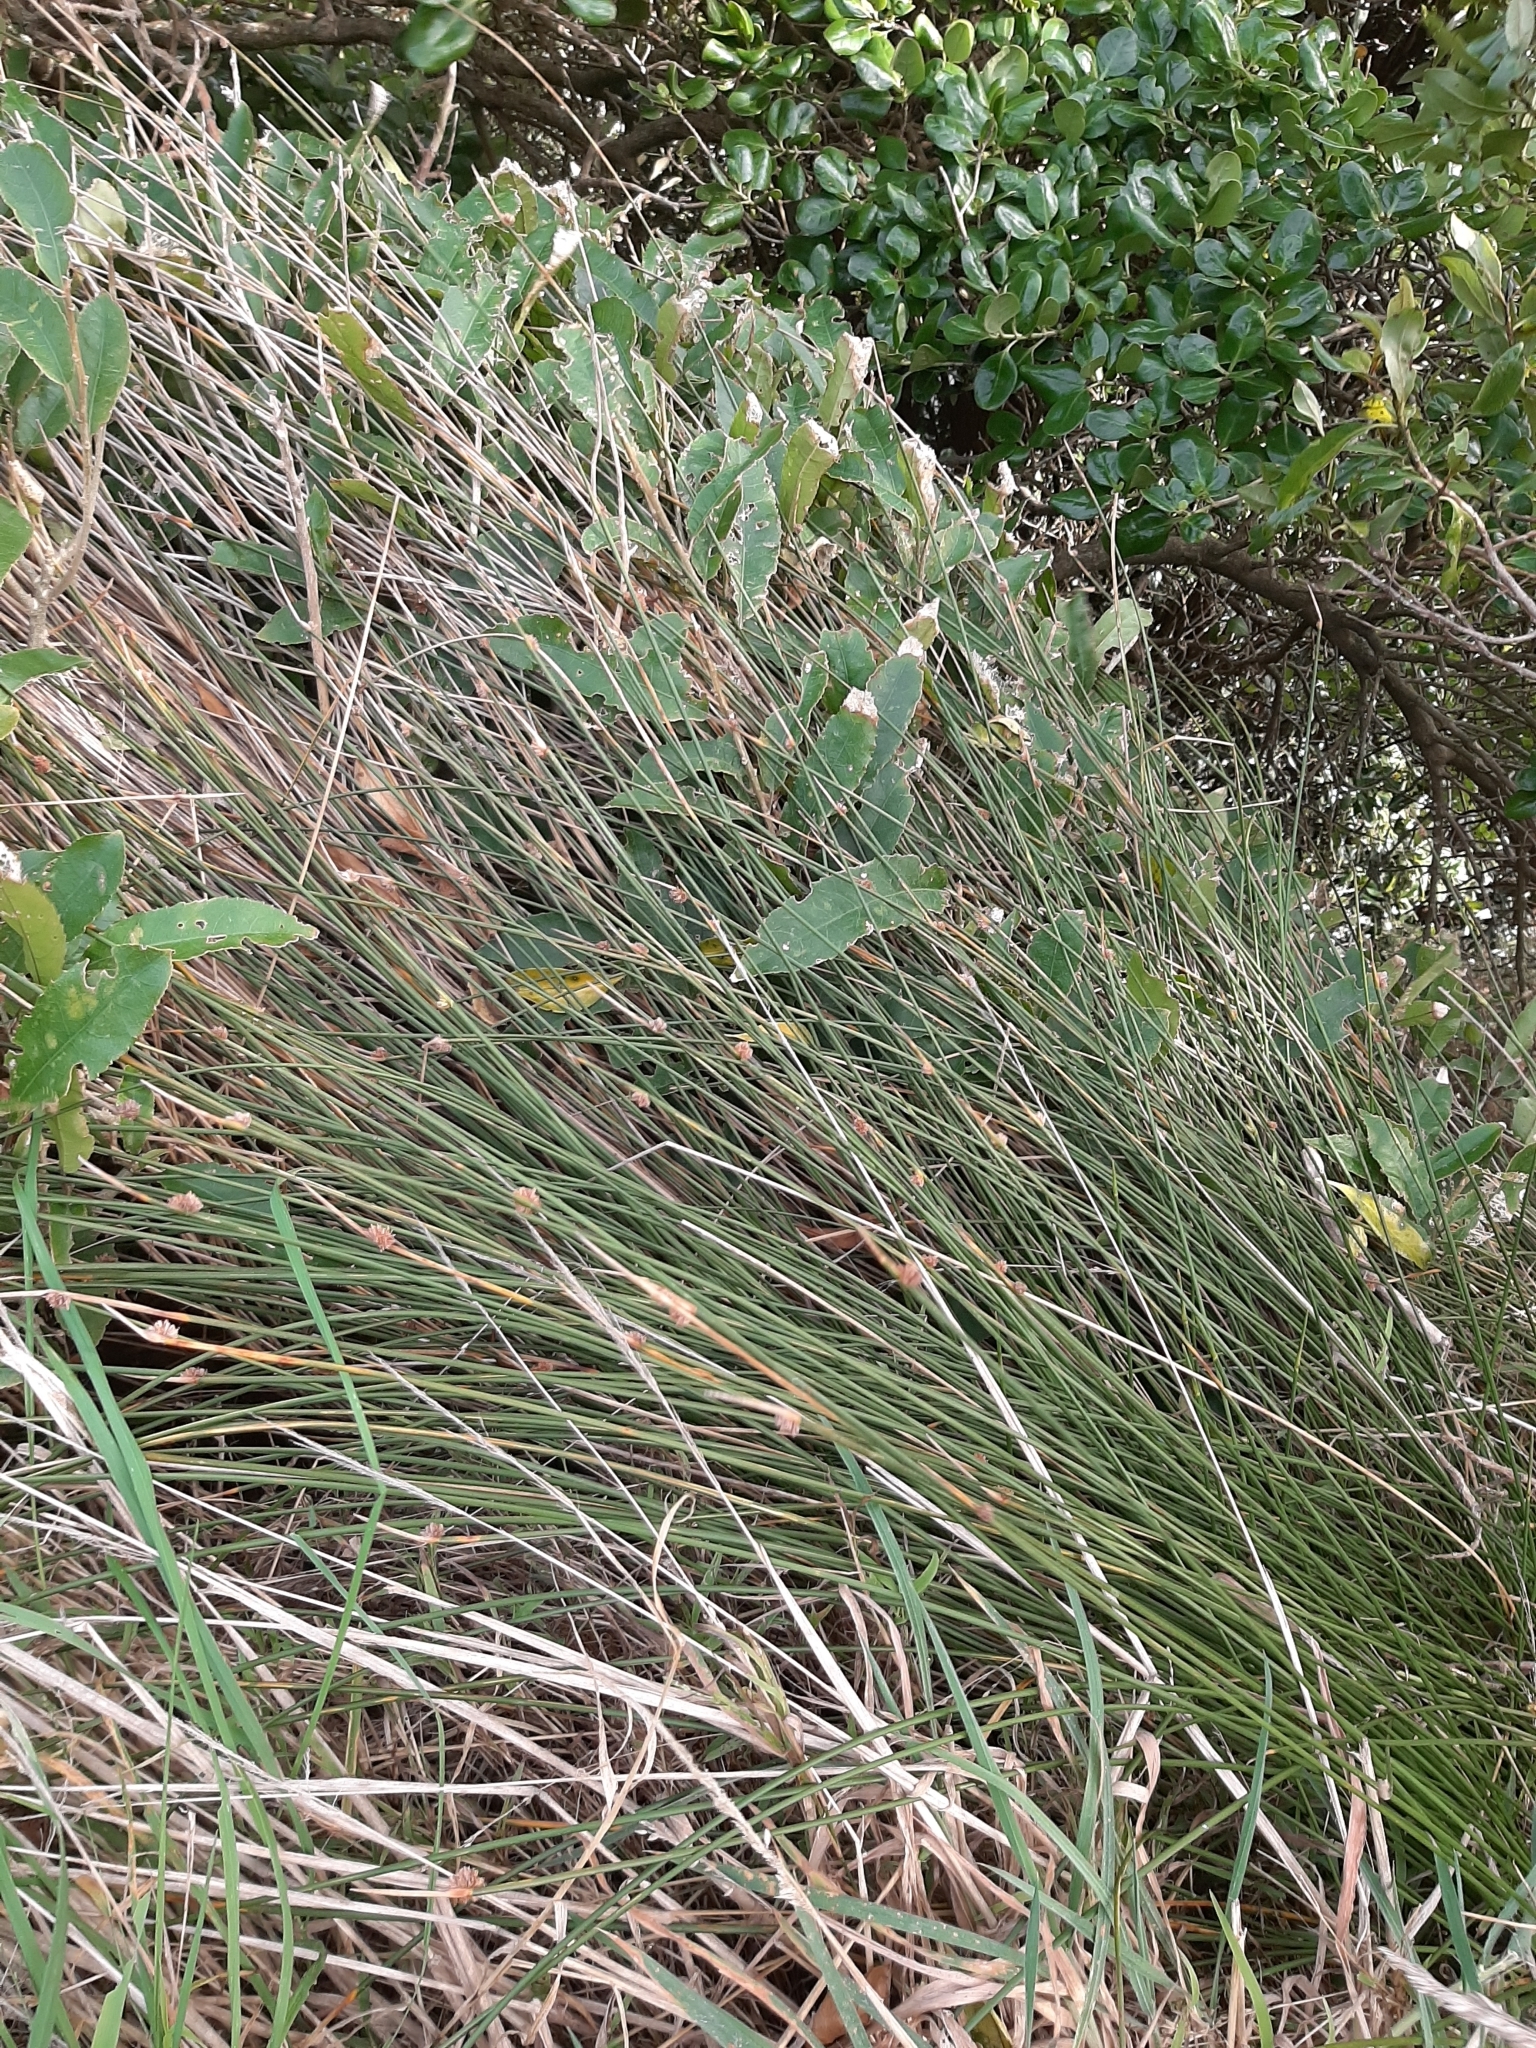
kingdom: Plantae
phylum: Tracheophyta
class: Liliopsida
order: Poales
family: Cyperaceae
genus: Ficinia
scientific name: Ficinia nodosa
